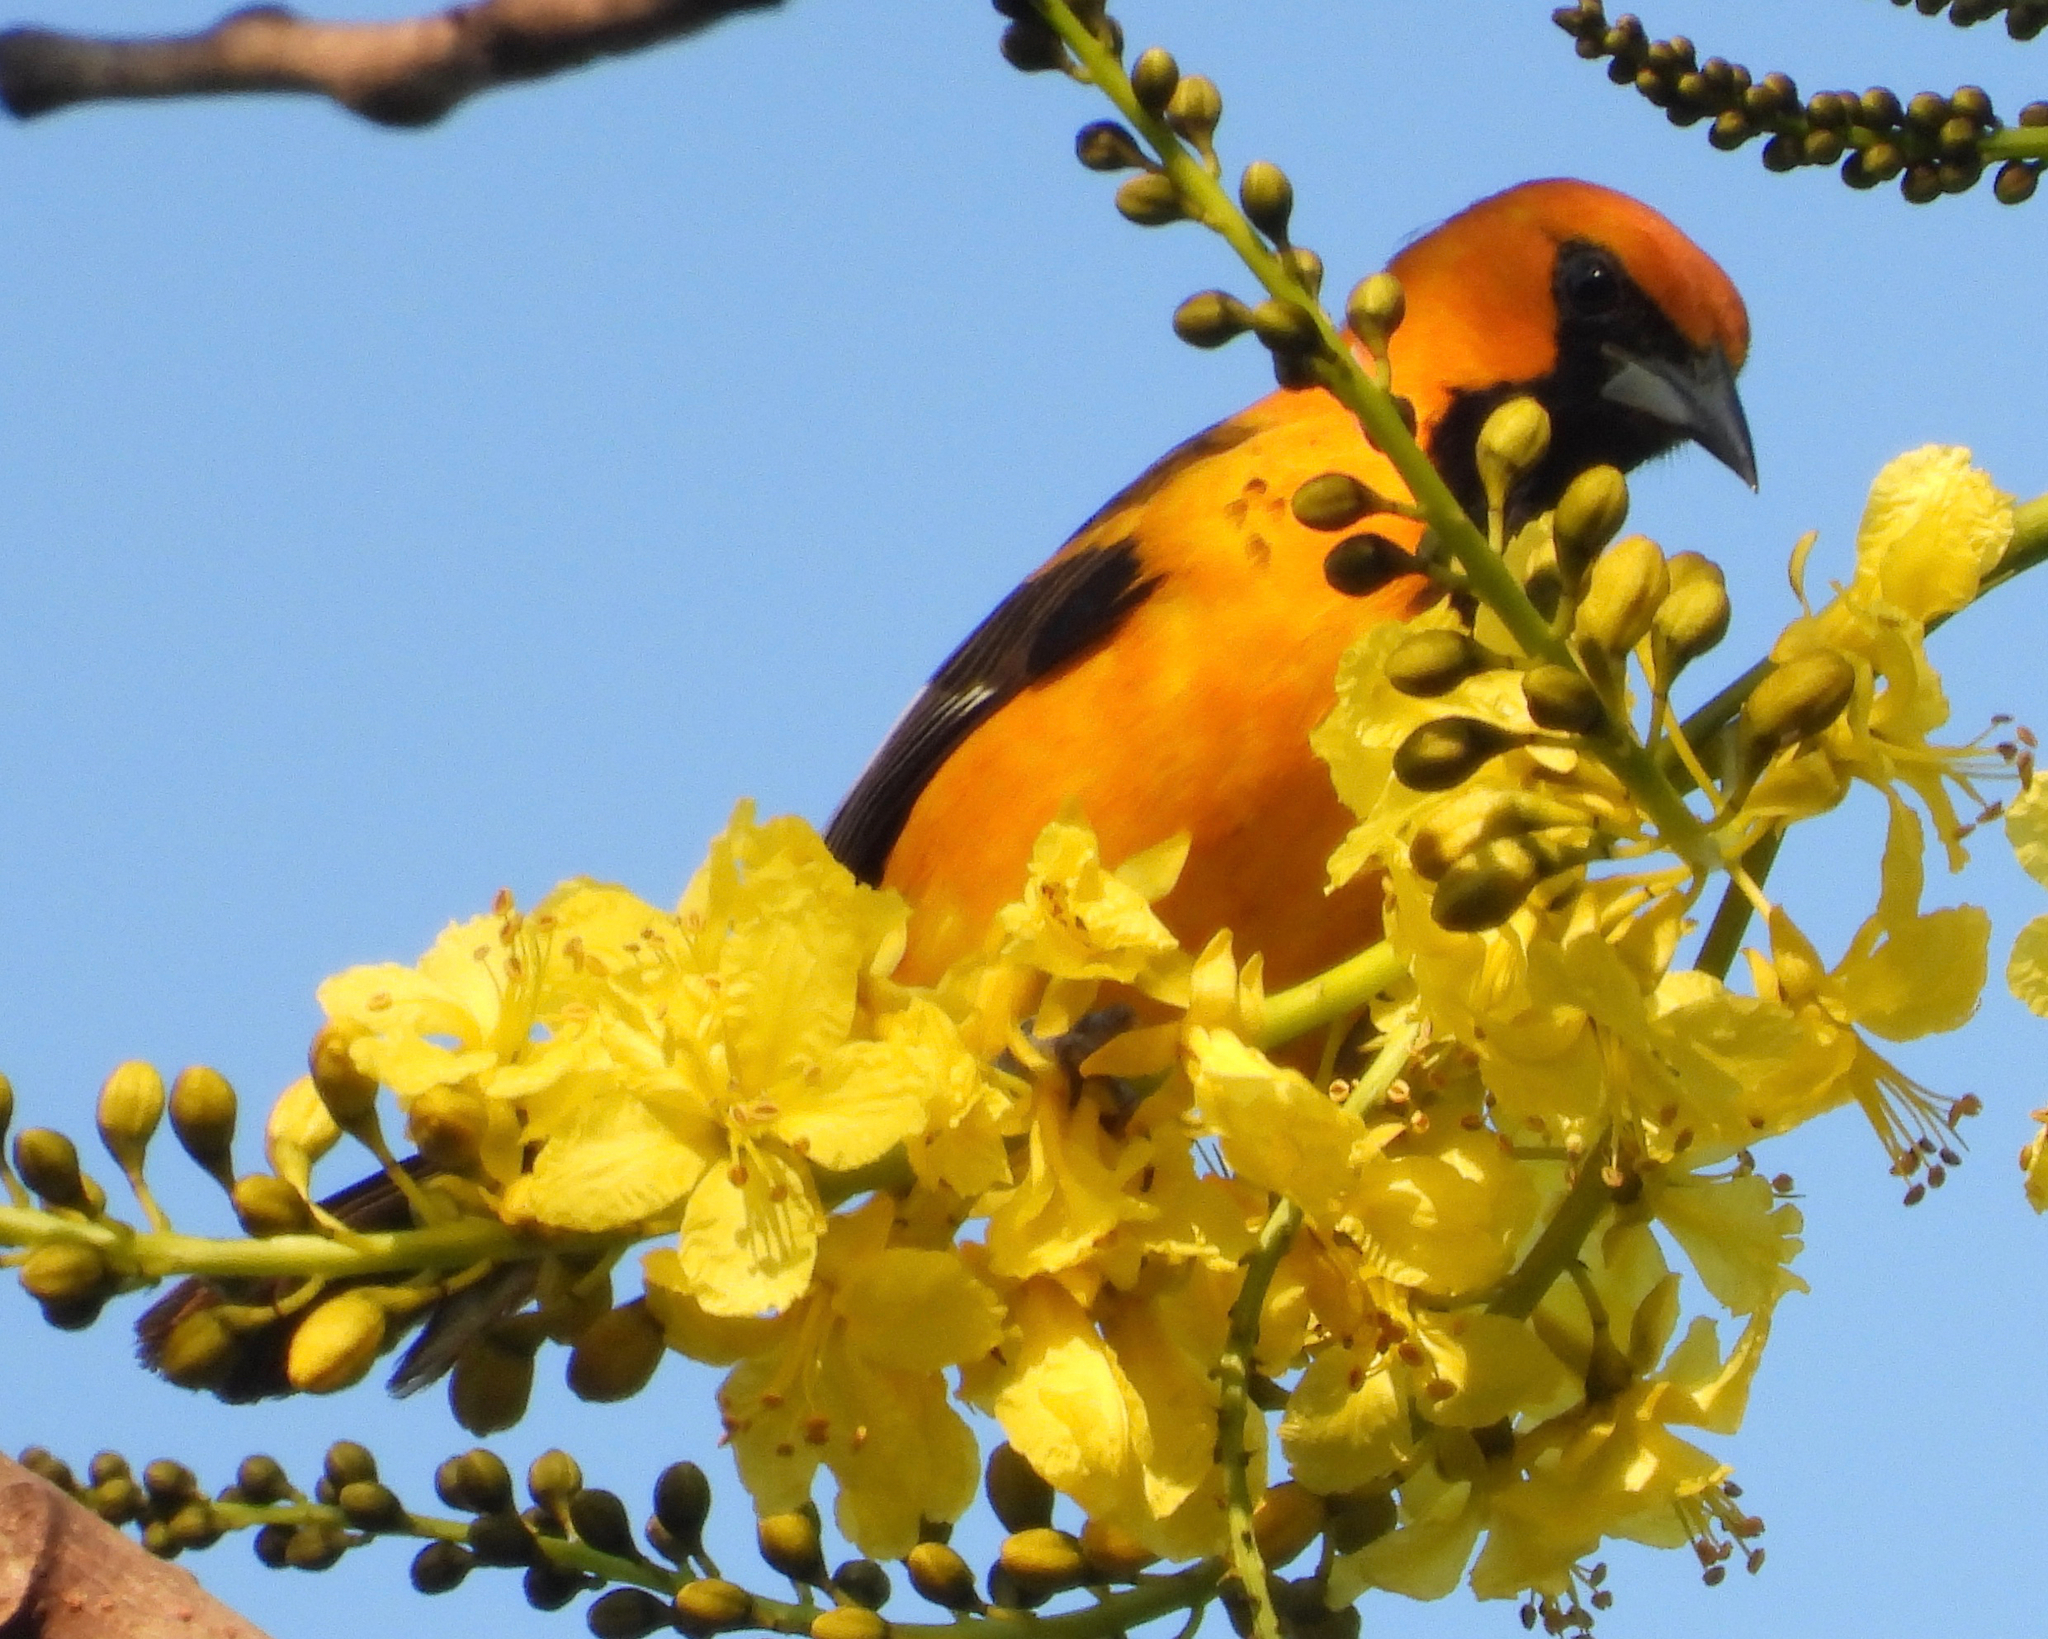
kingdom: Animalia
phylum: Chordata
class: Aves
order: Passeriformes
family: Icteridae
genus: Icterus
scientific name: Icterus pectoralis
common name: Spot-breasted oriole
